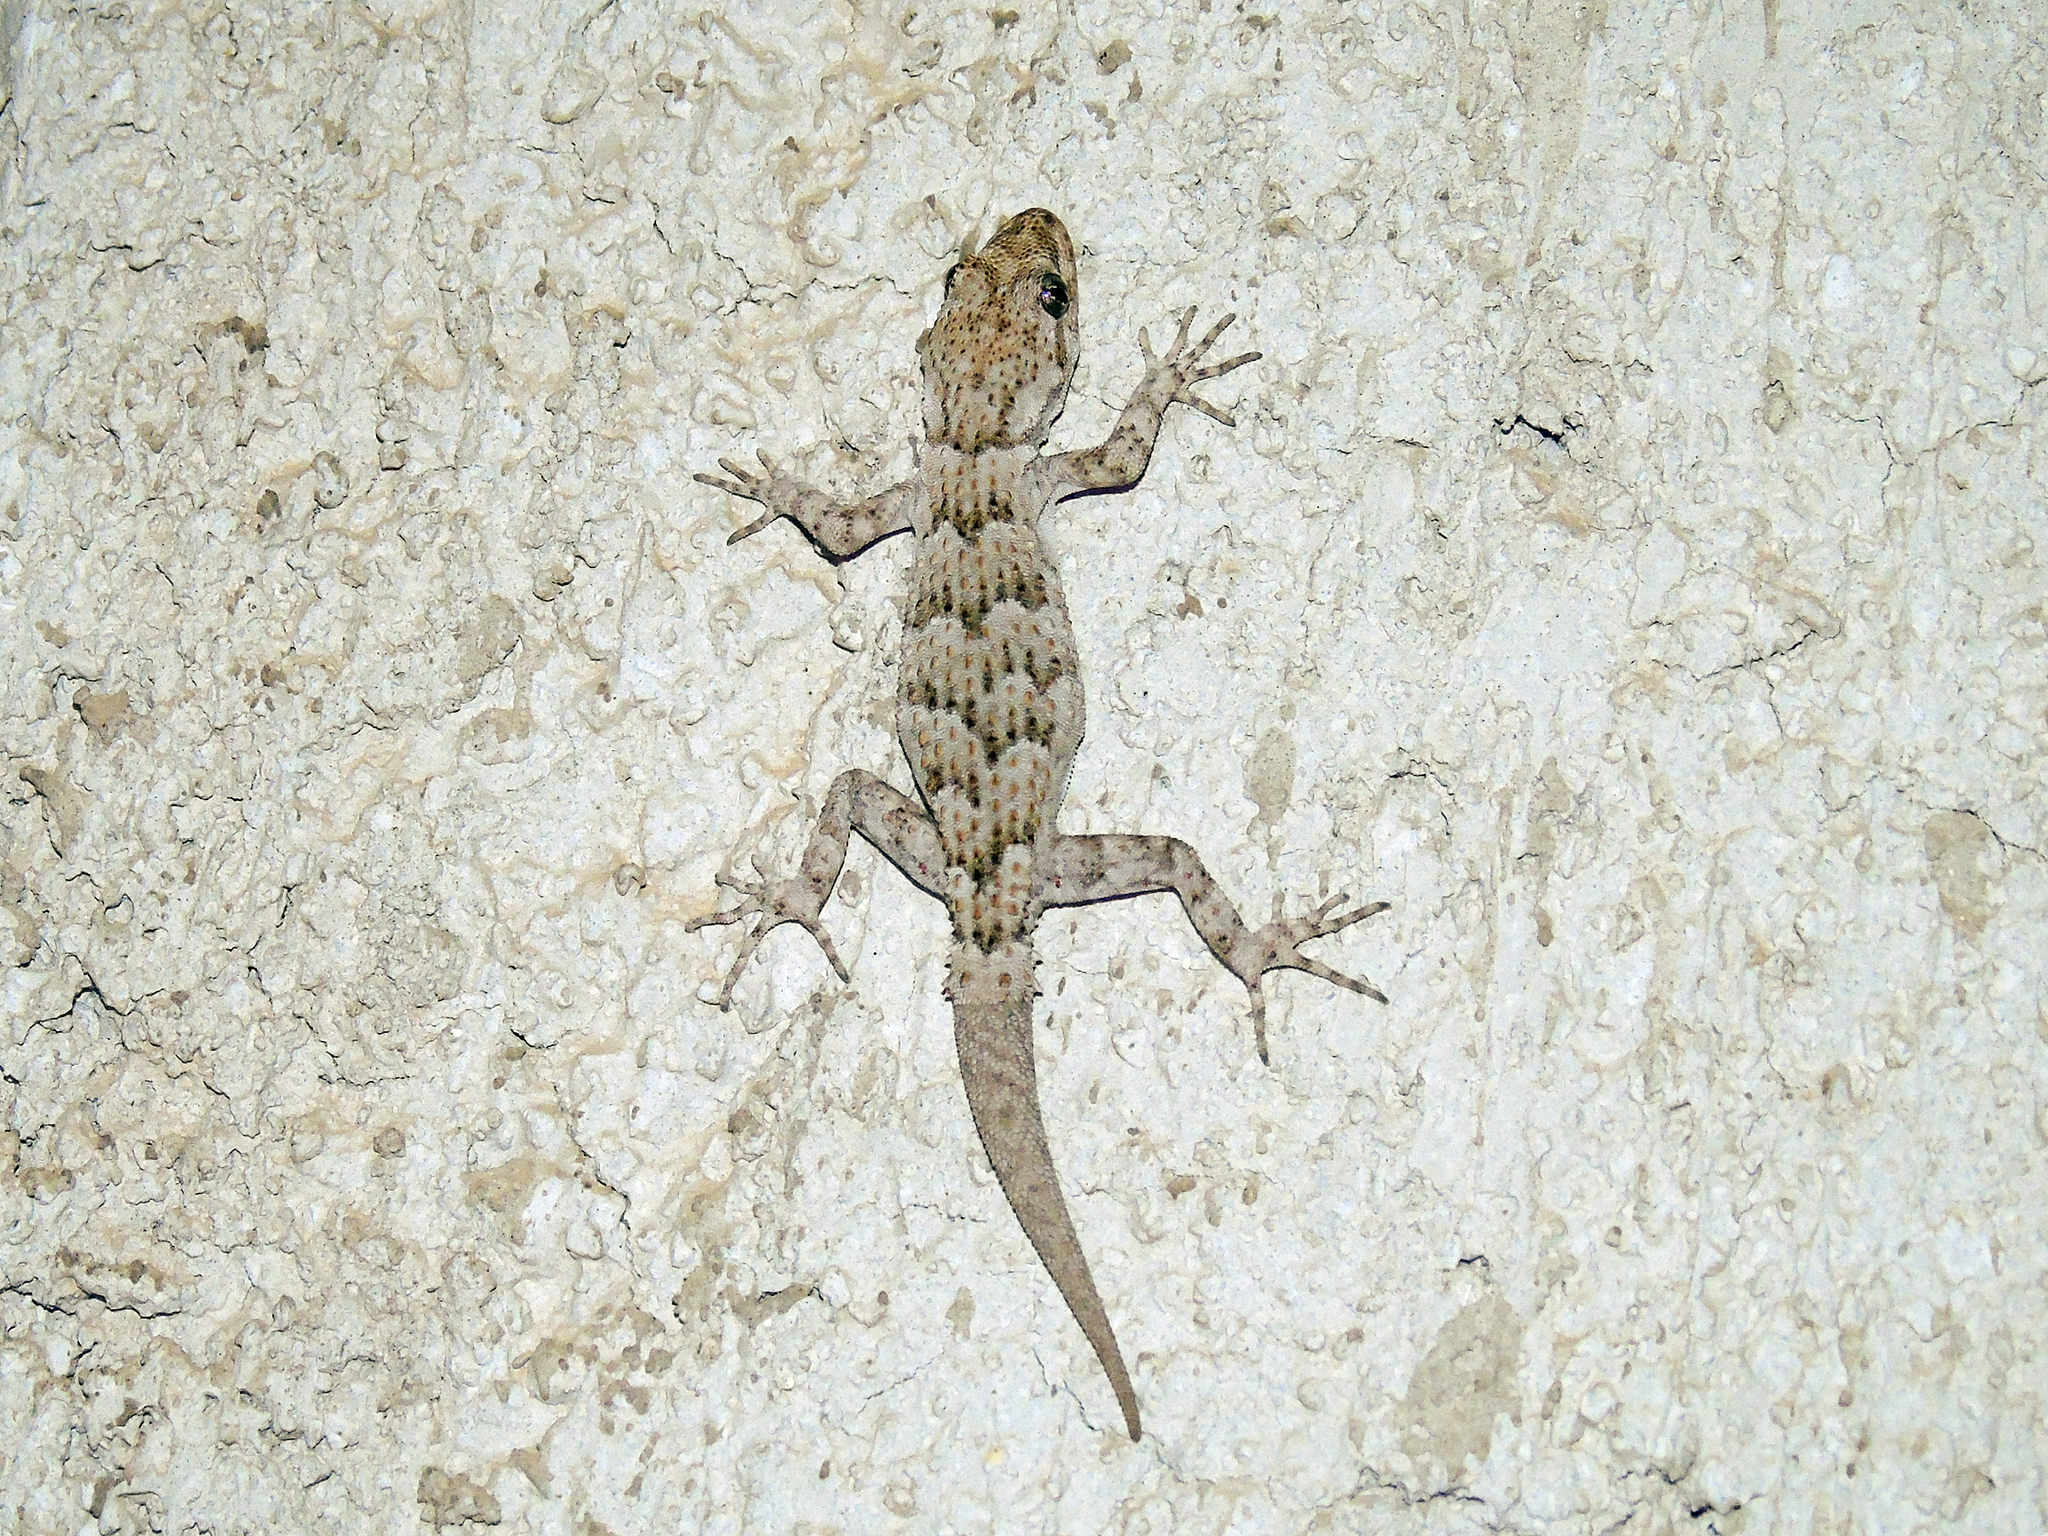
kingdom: Animalia
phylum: Chordata
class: Squamata
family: Gekkonidae
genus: Mediodactylus
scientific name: Mediodactylus kotschyi
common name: Kotschy's gecko
